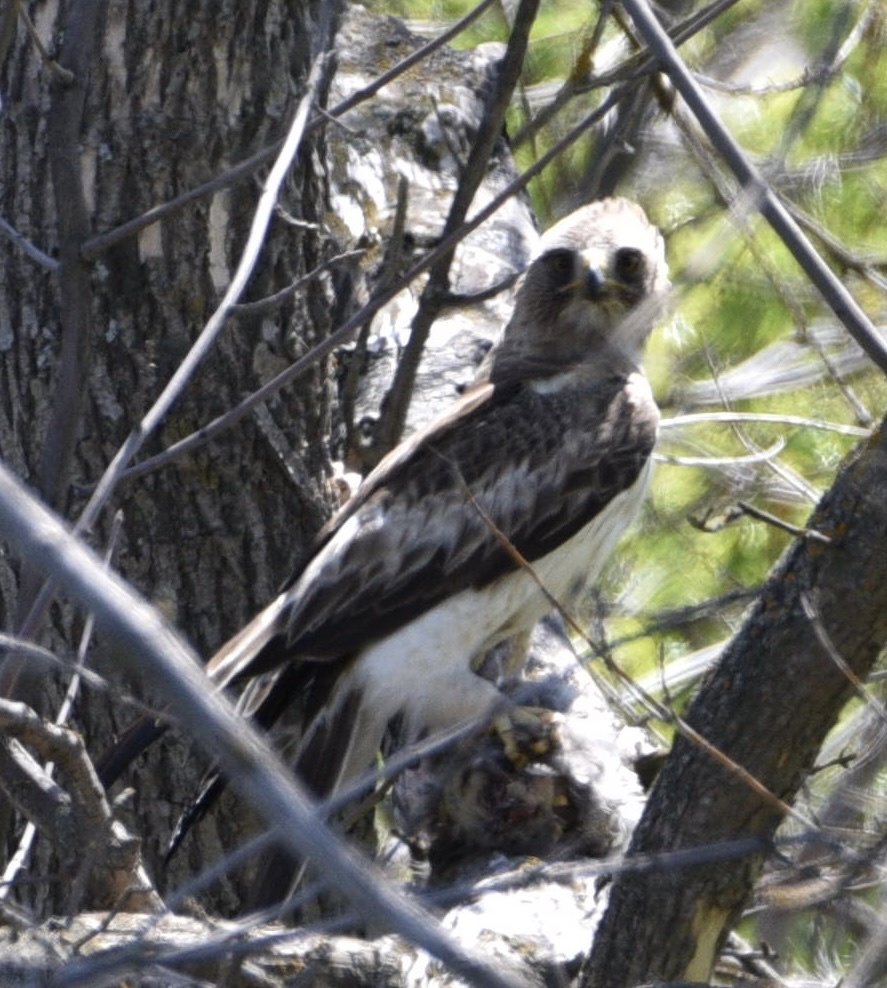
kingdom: Animalia
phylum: Chordata
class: Aves
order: Accipitriformes
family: Accipitridae
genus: Hieraaetus
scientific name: Hieraaetus pennatus
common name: Booted eagle
